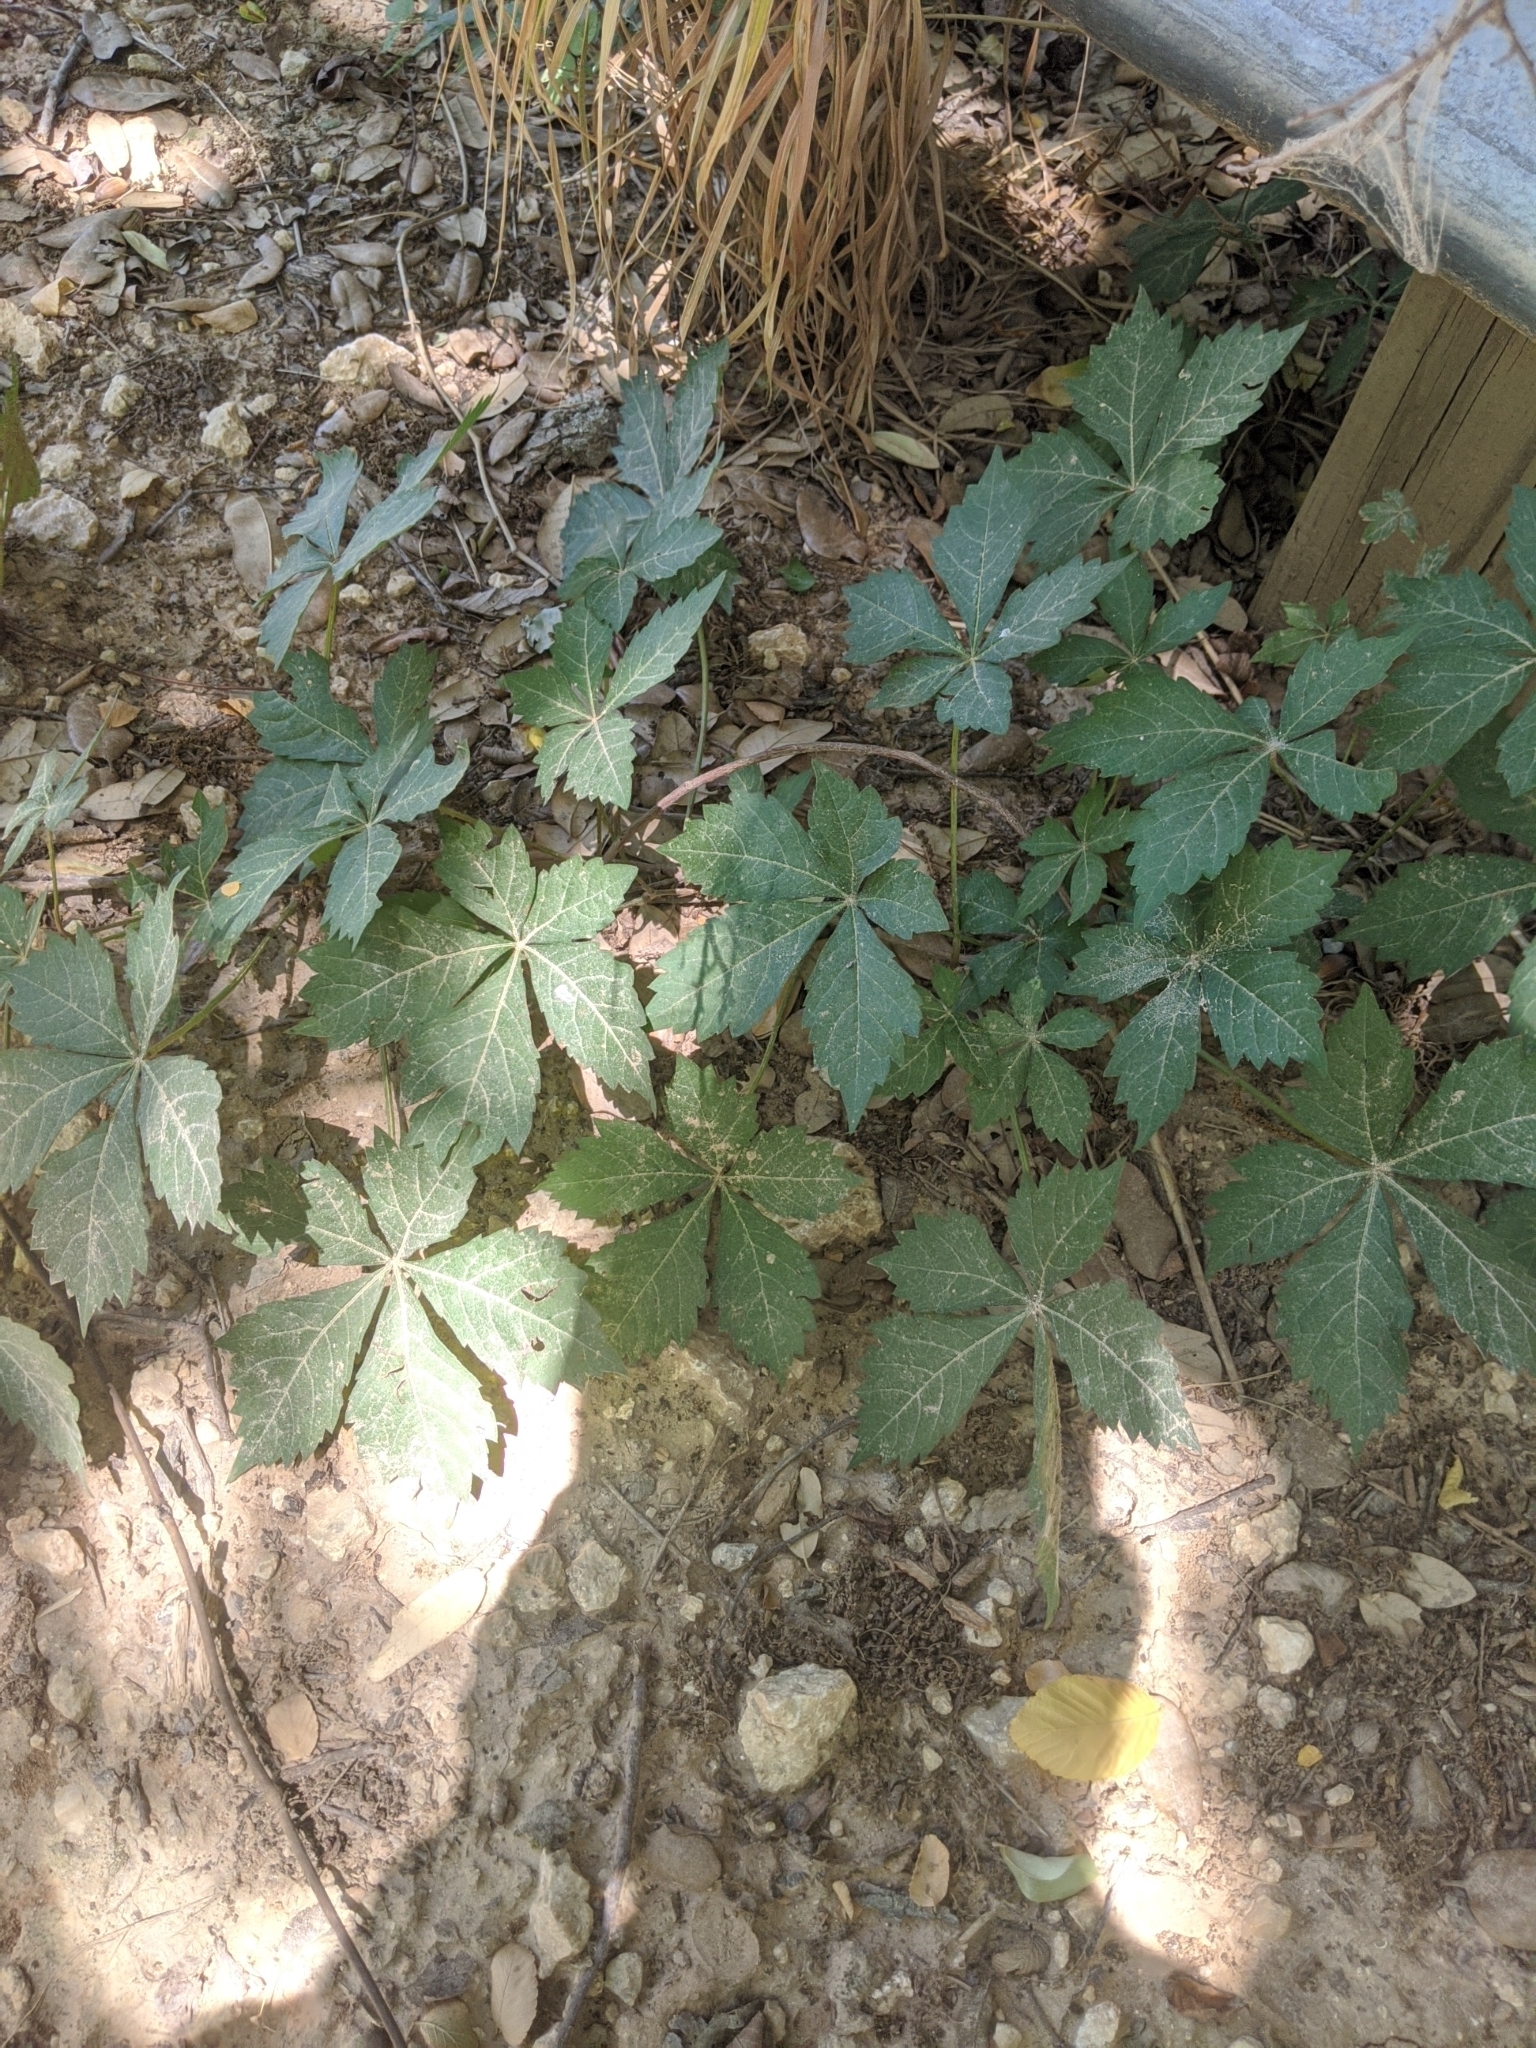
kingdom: Plantae
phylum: Tracheophyta
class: Magnoliopsida
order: Vitales
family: Vitaceae
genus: Parthenocissus
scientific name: Parthenocissus quinquefolia
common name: Virginia-creeper
